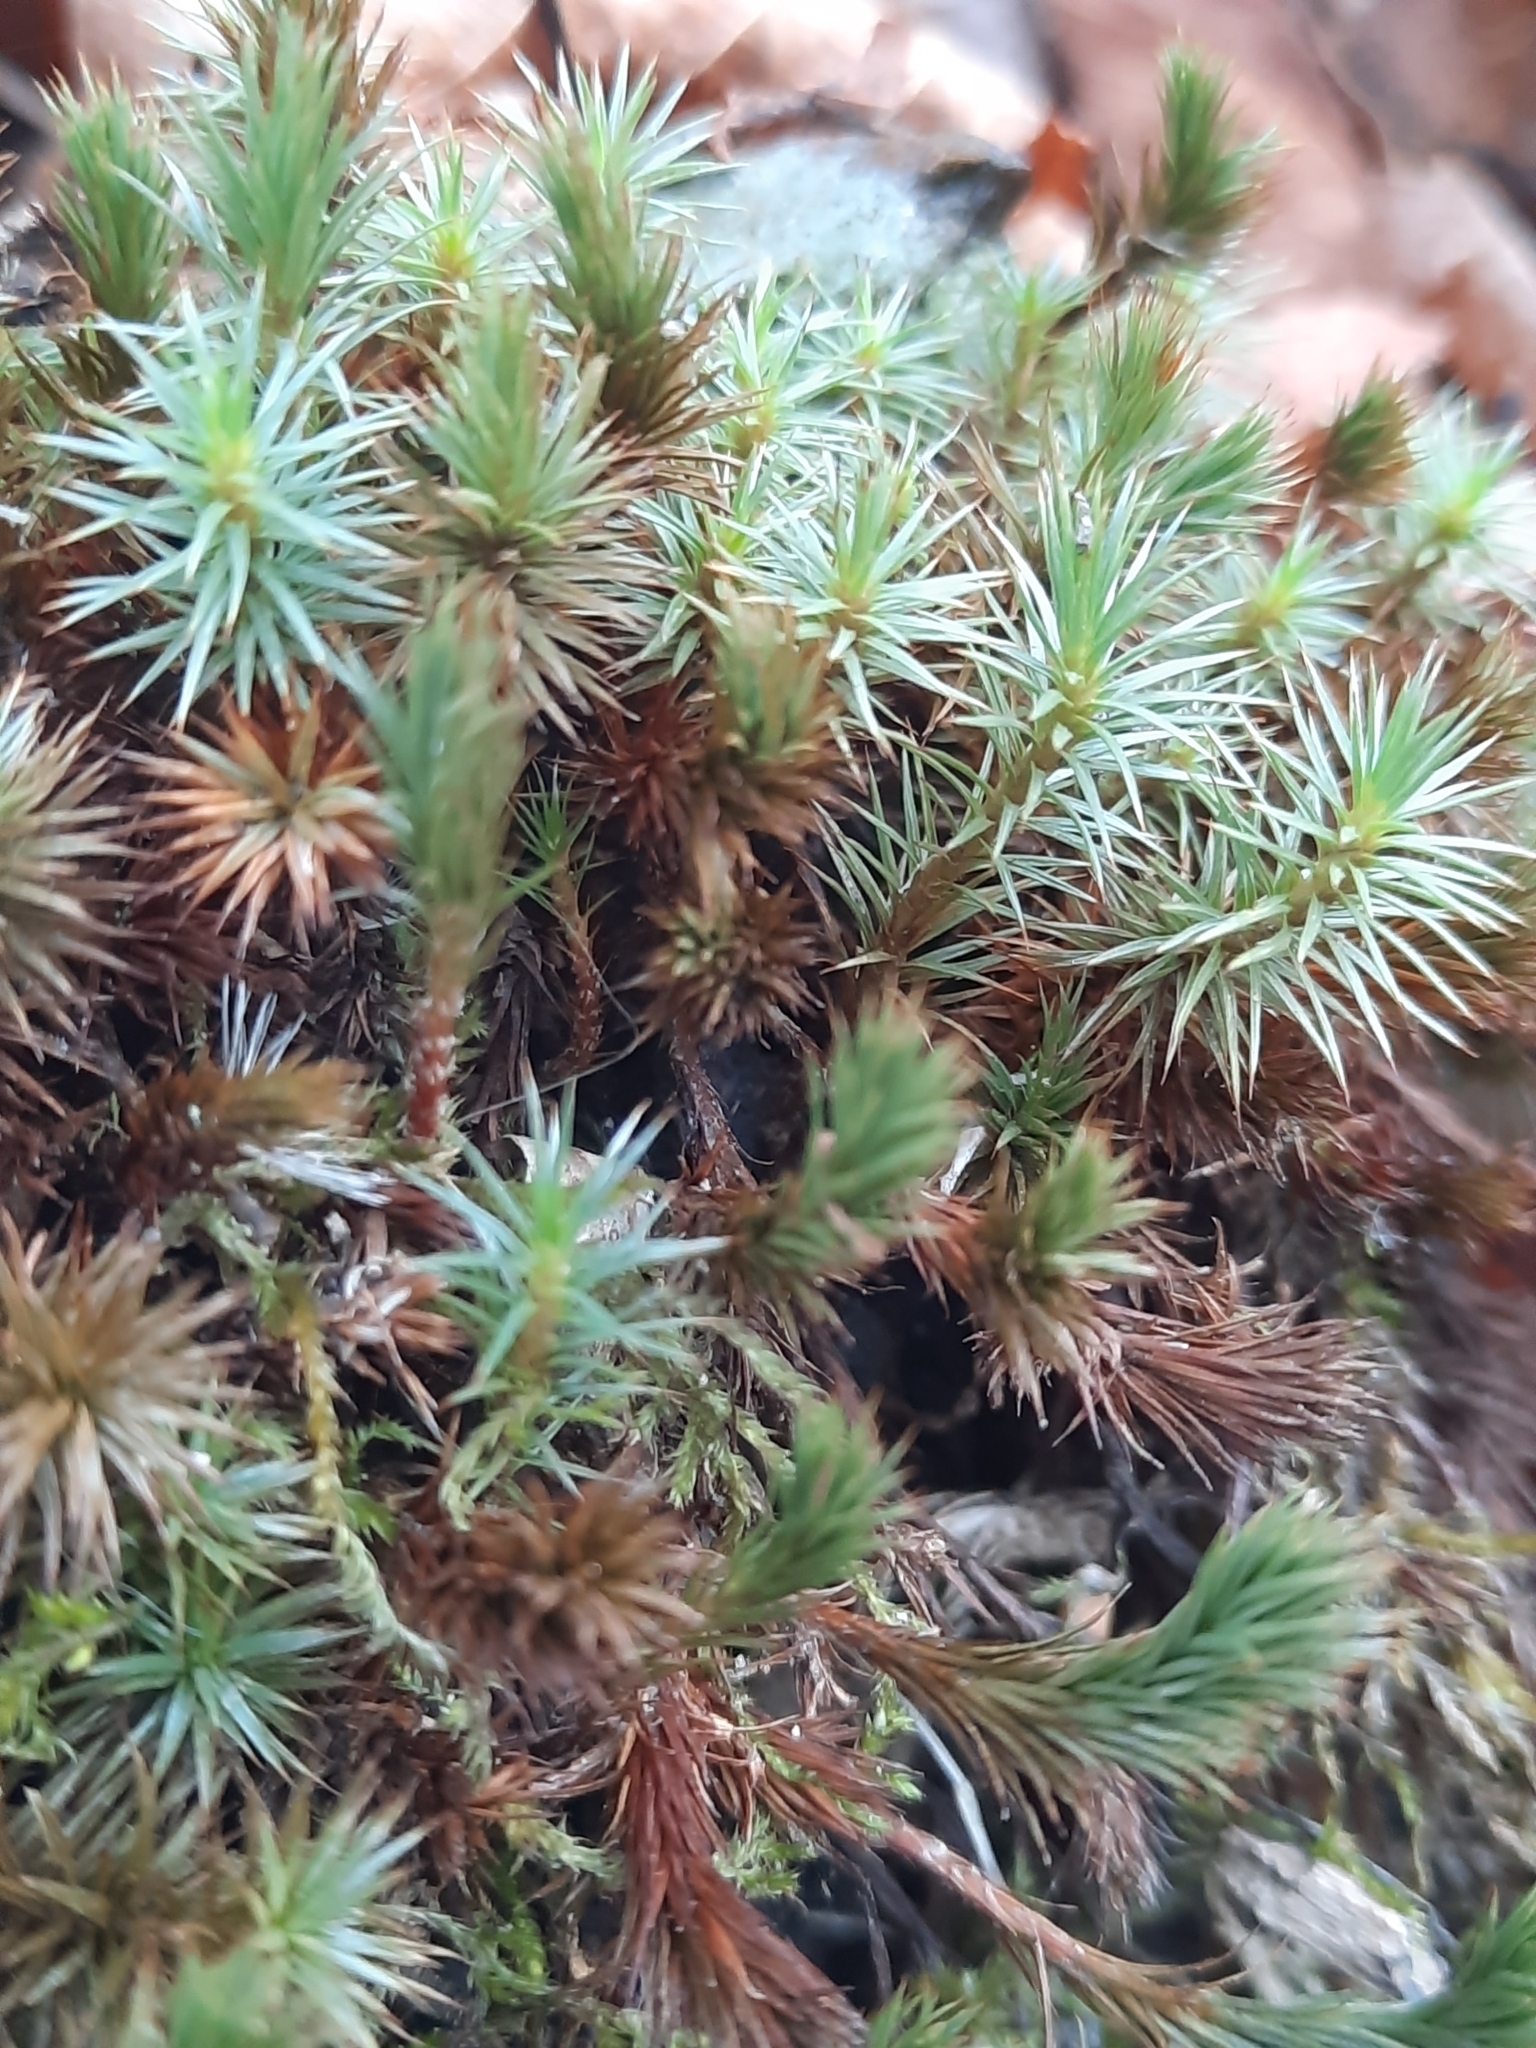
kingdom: Plantae
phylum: Bryophyta
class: Polytrichopsida
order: Polytrichales
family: Polytrichaceae
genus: Polytrichum
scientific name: Polytrichum juniperinum
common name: Juniper haircap moss
